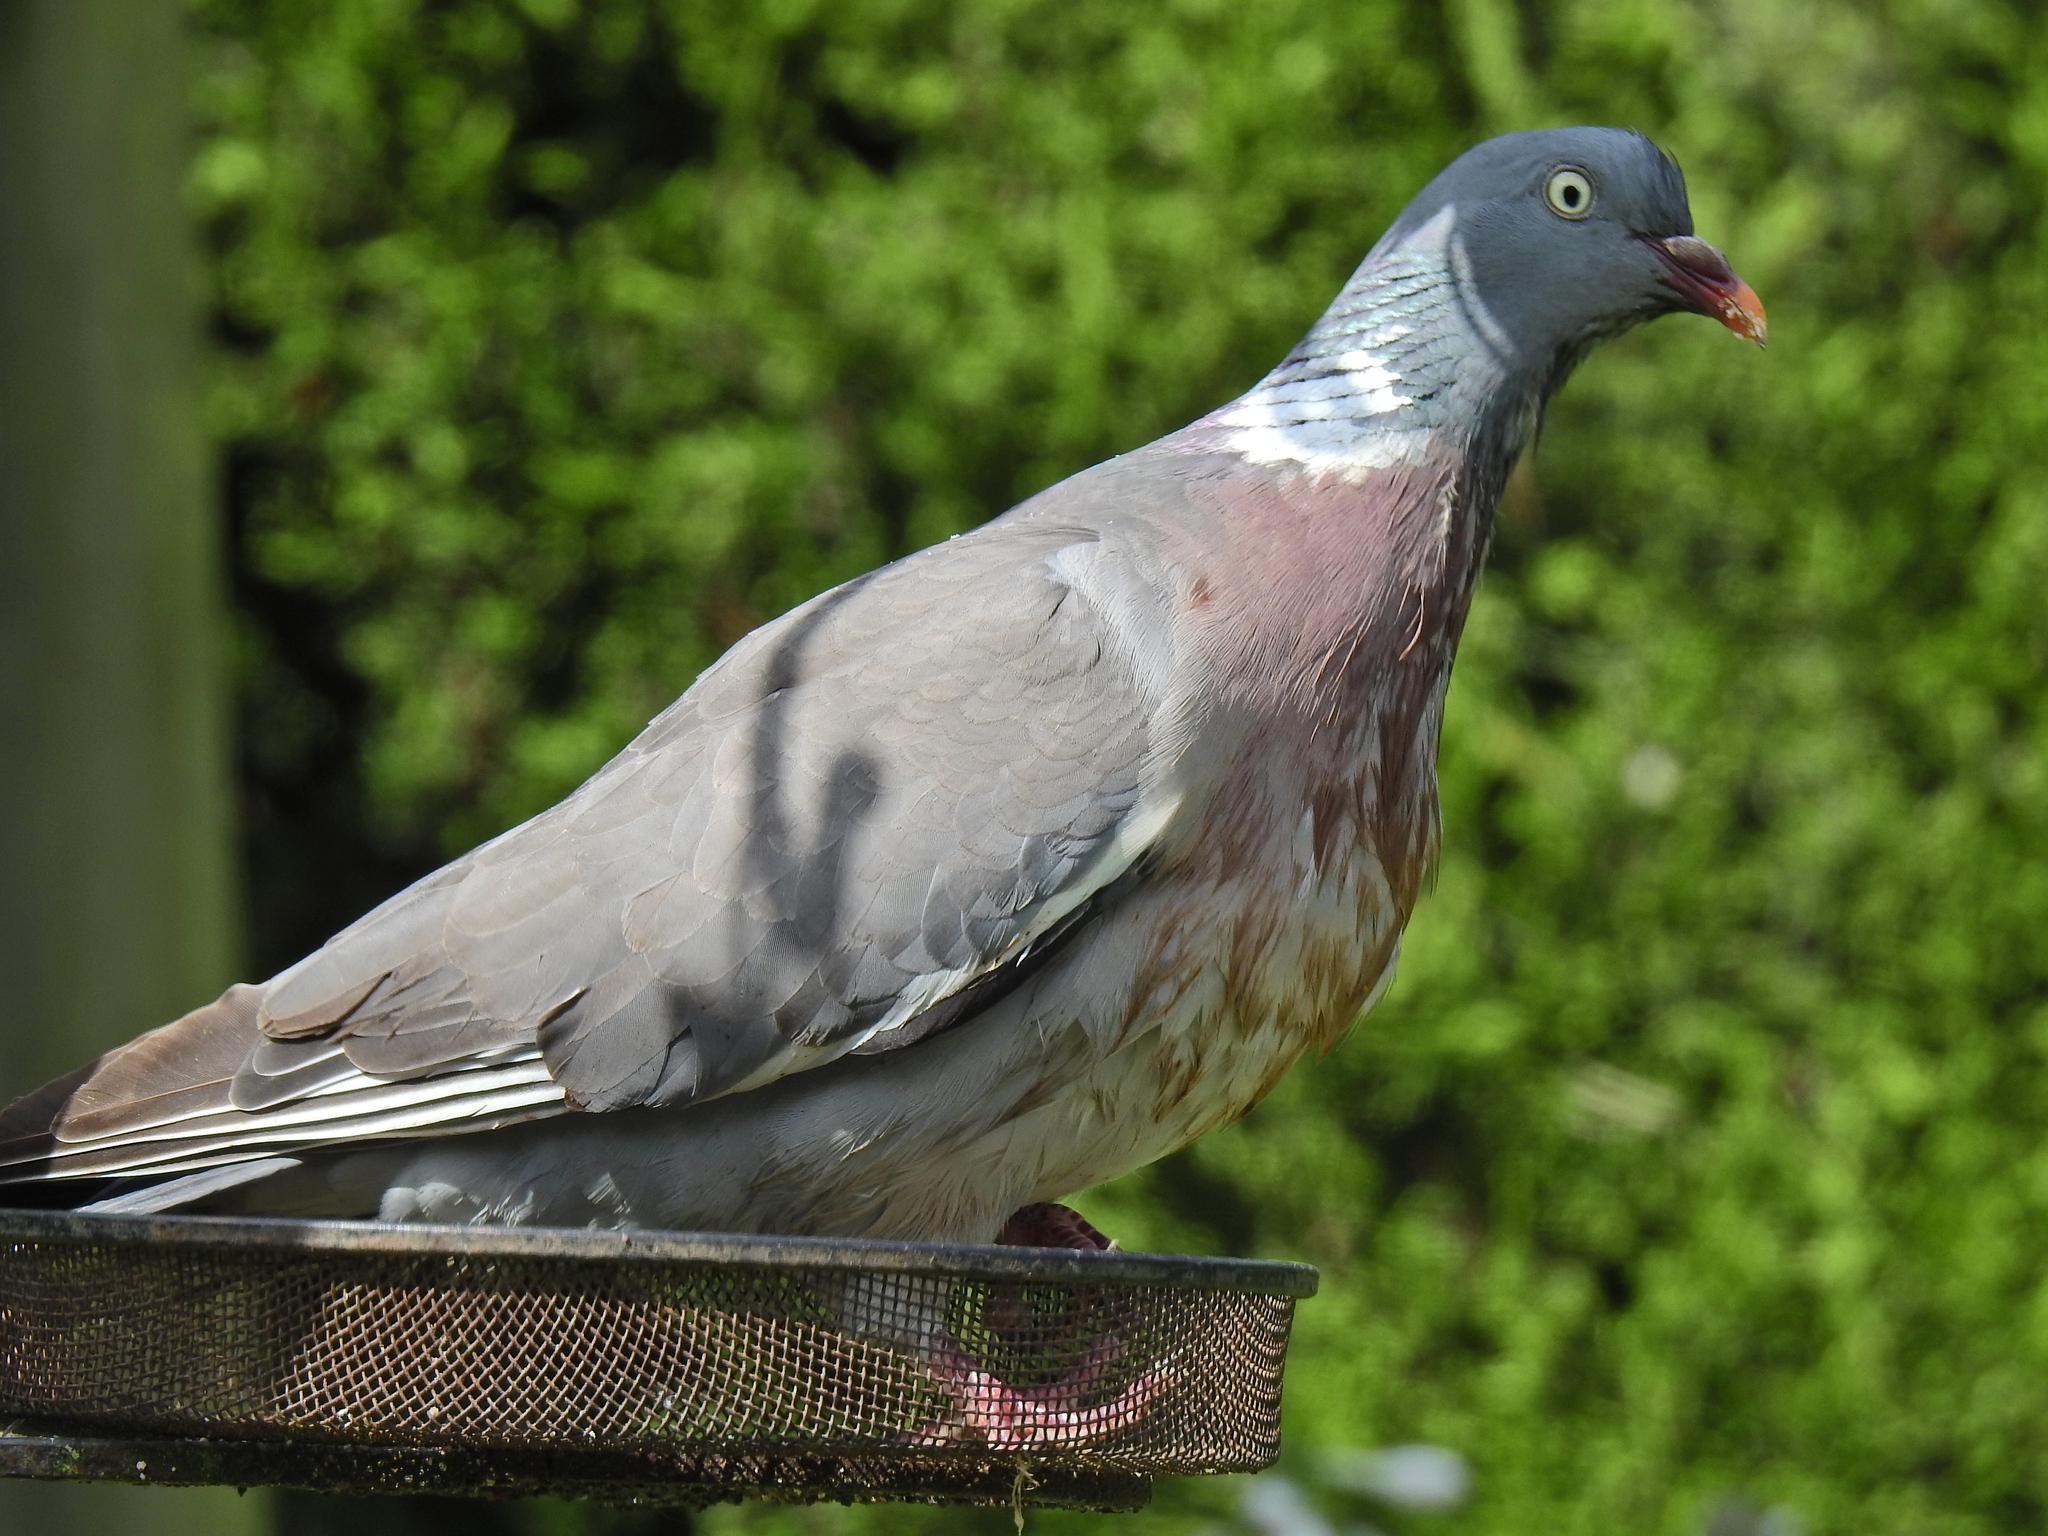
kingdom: Animalia
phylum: Chordata
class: Aves
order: Columbiformes
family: Columbidae
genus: Columba
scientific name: Columba palumbus
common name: Common wood pigeon
